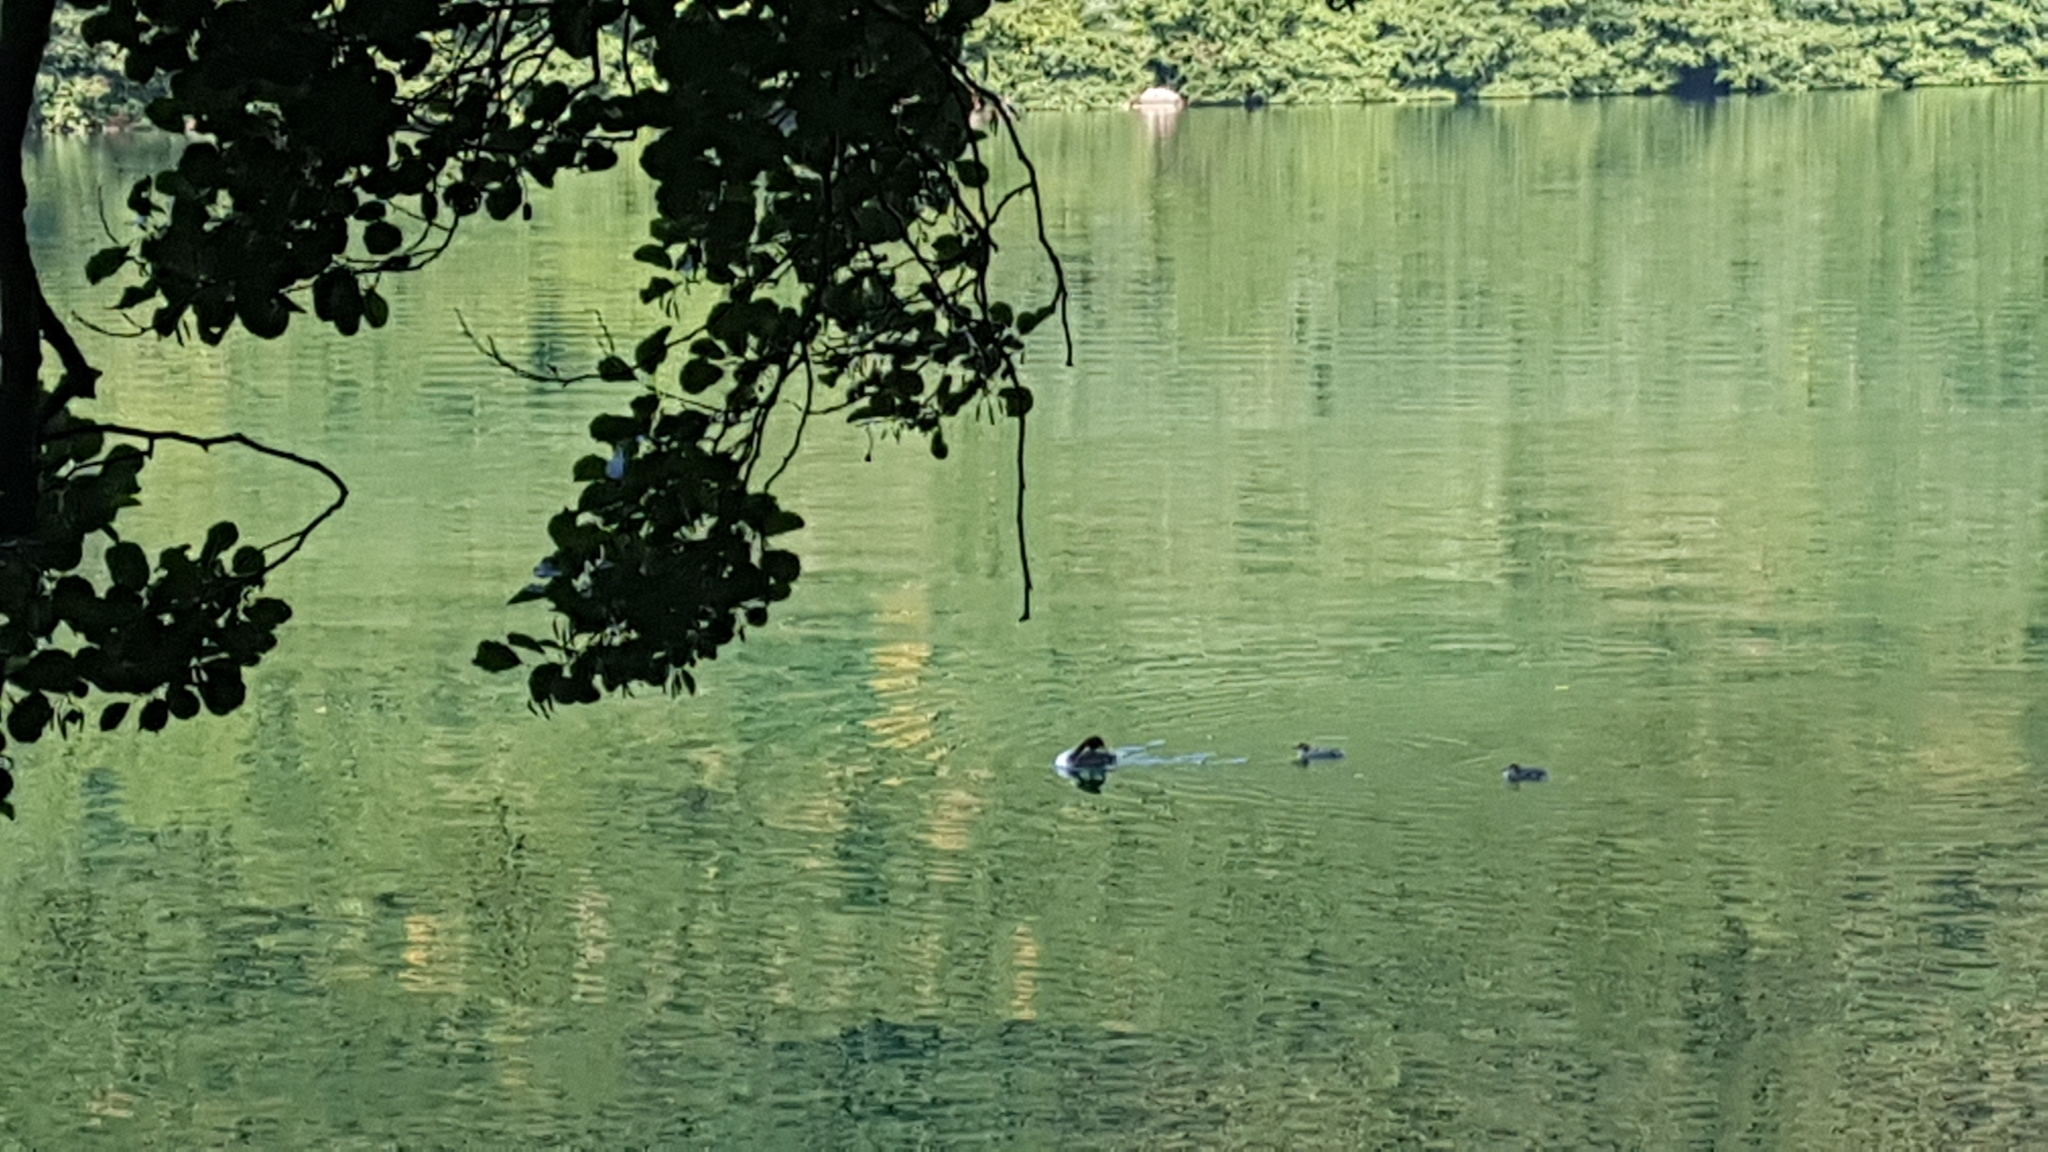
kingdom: Animalia
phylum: Chordata
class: Aves
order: Podicipediformes
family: Podicipedidae
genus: Podiceps
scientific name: Podiceps cristatus
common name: Great crested grebe
